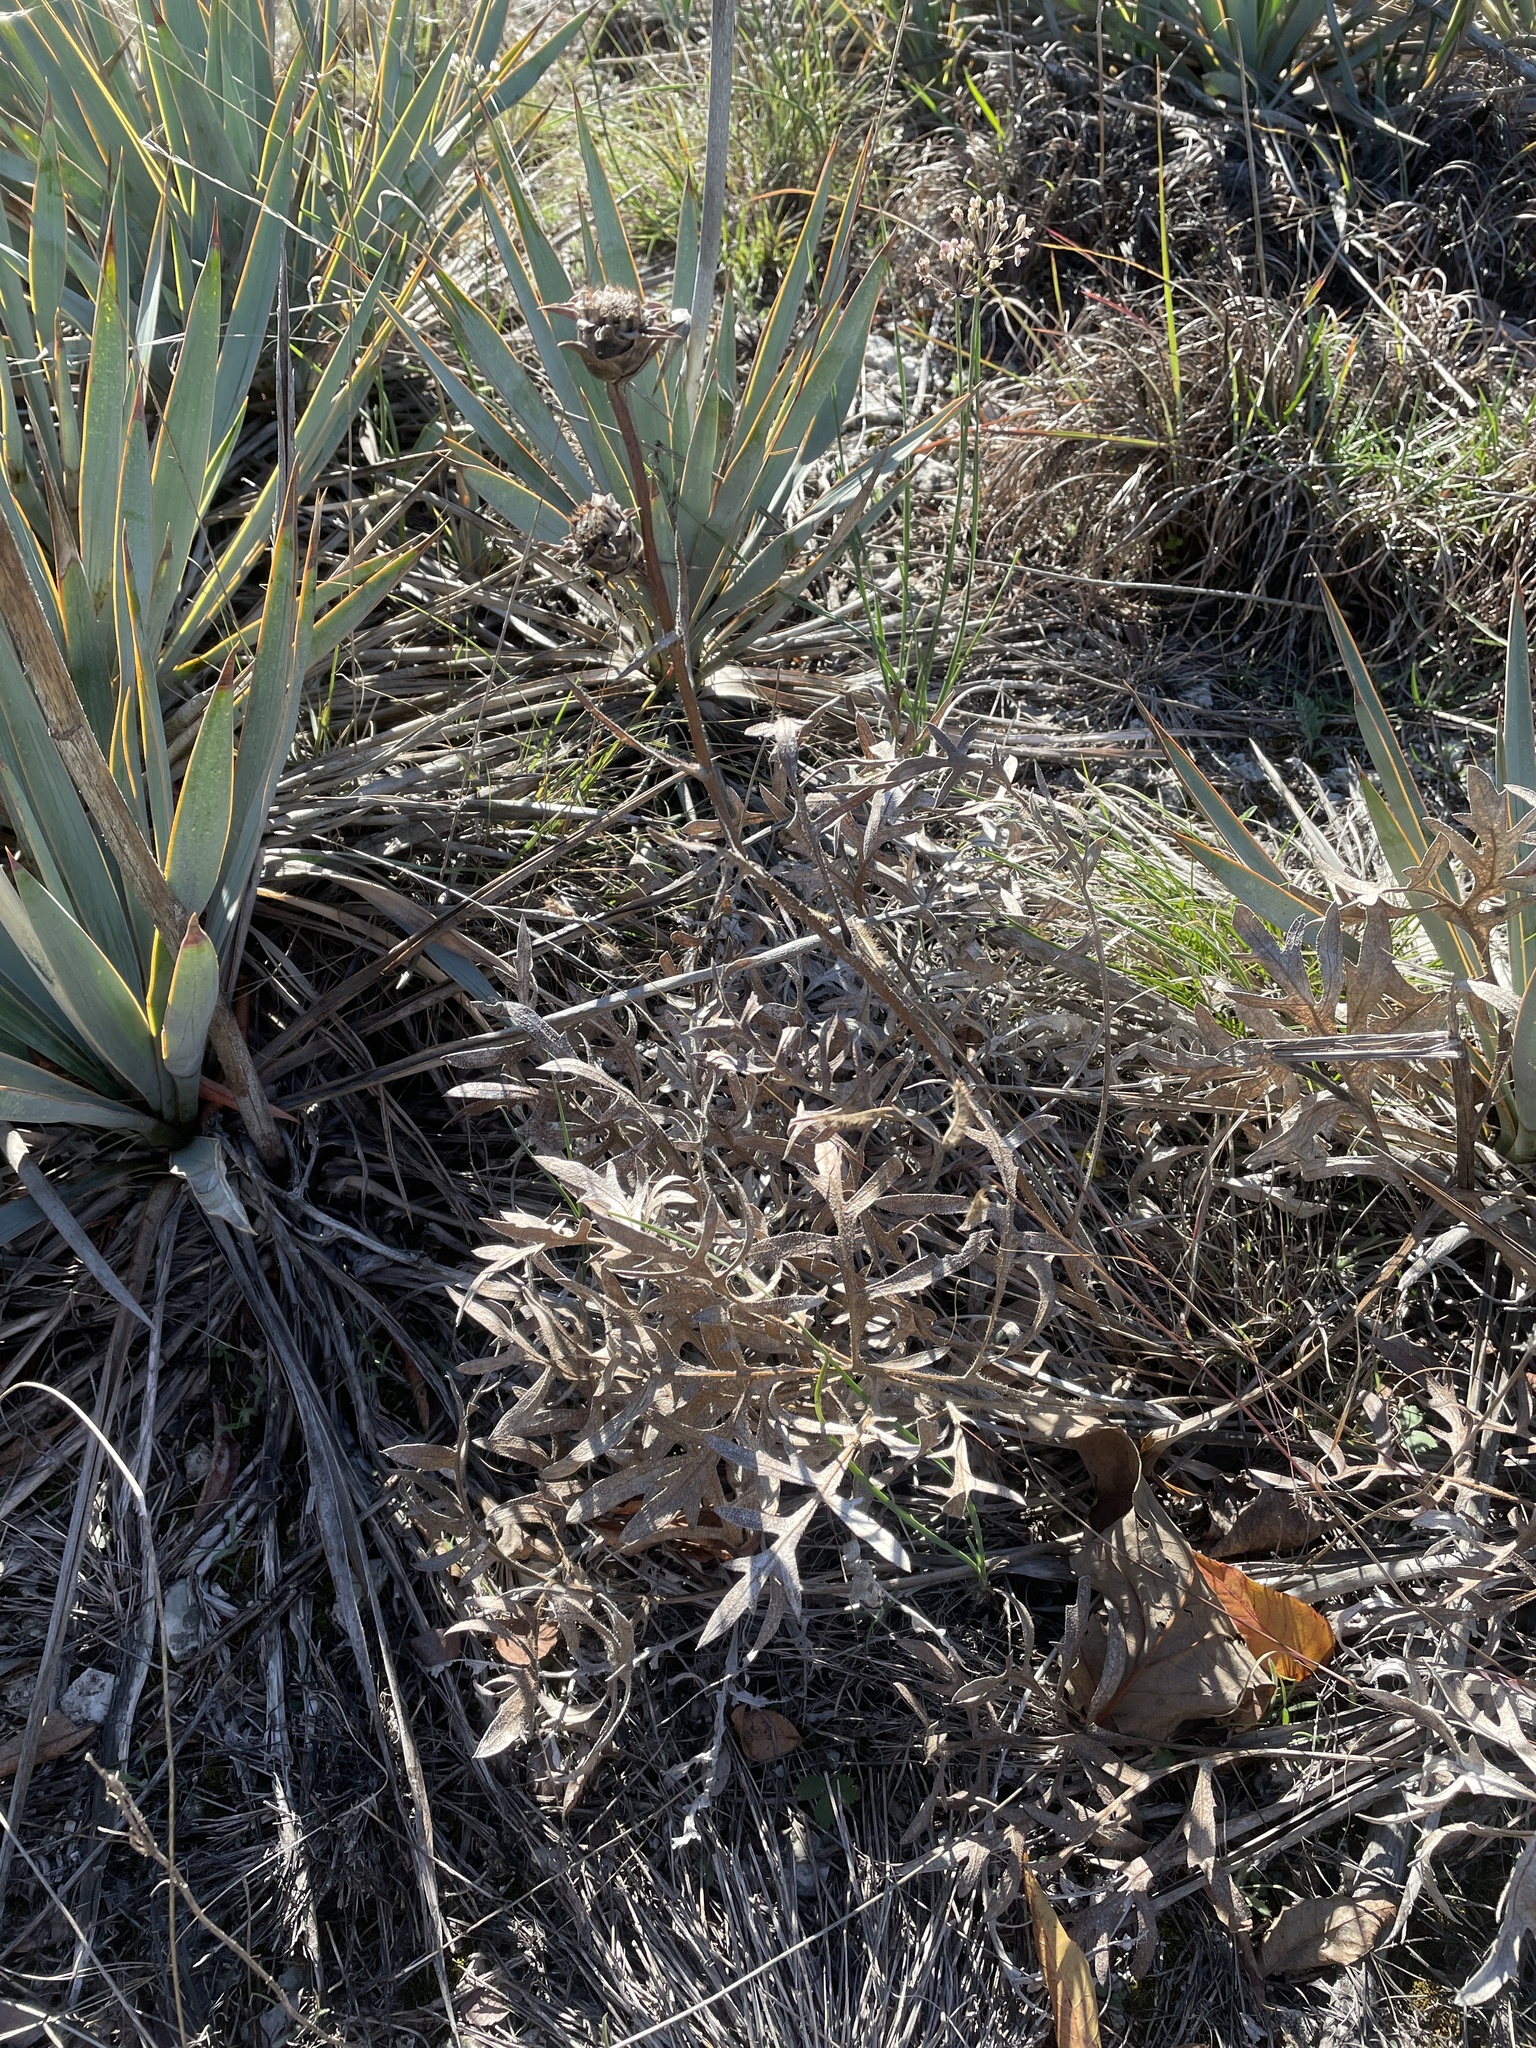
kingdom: Plantae
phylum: Tracheophyta
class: Magnoliopsida
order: Asterales
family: Asteraceae
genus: Silphium
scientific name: Silphium albiflorum
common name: White rosinweed
